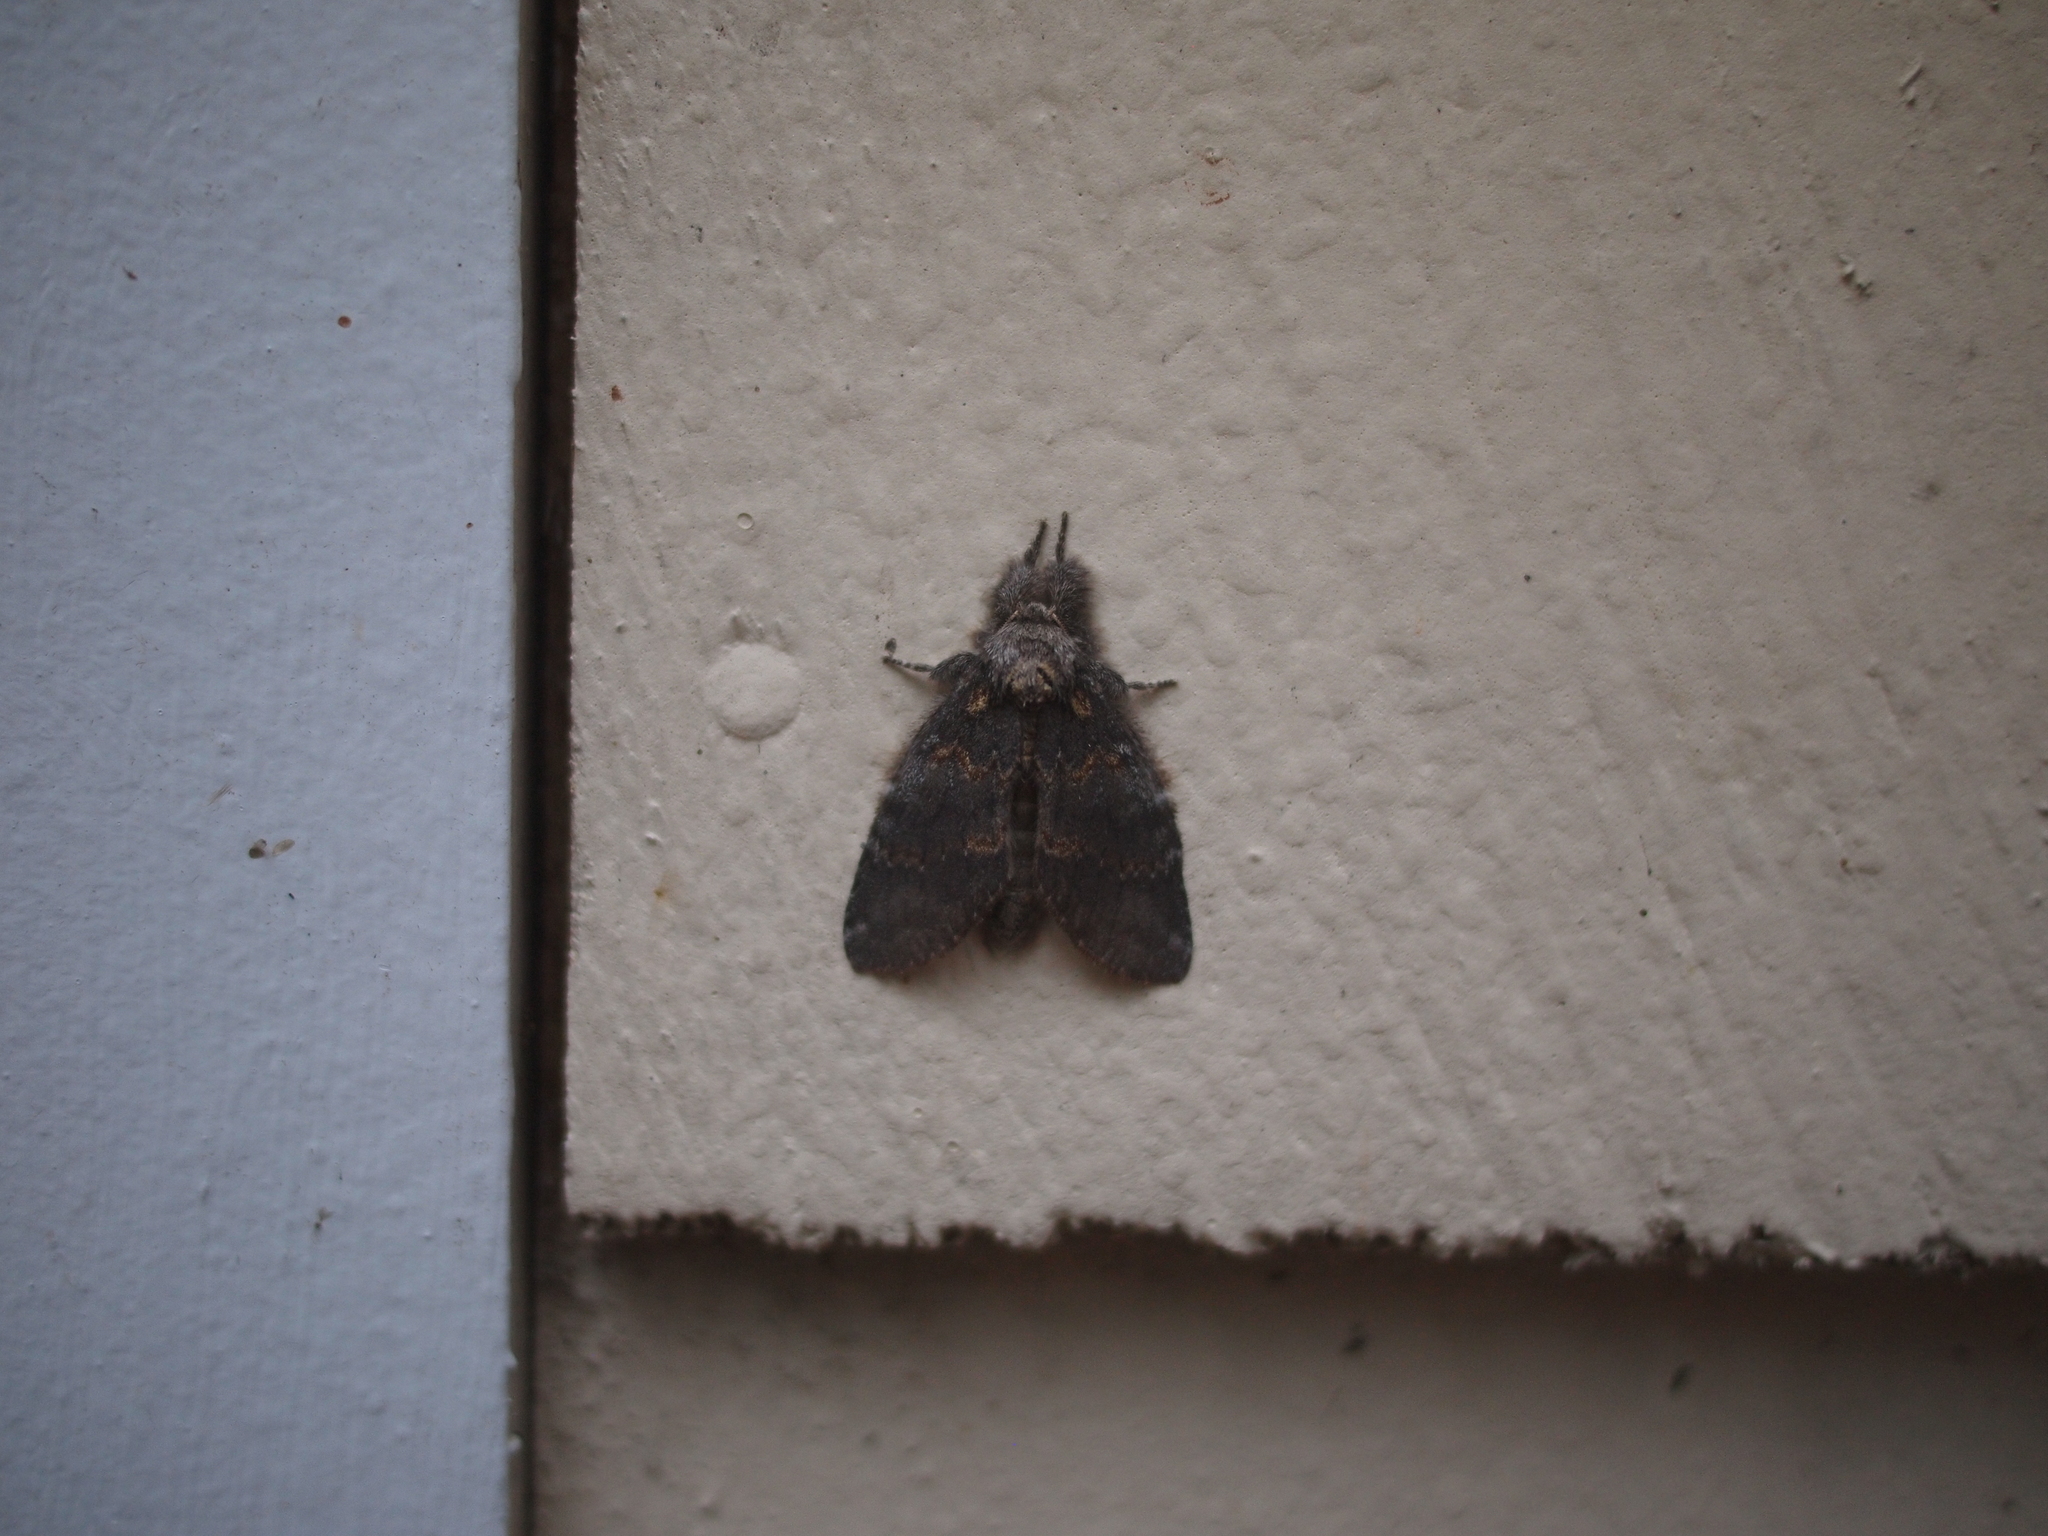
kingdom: Animalia
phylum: Arthropoda
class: Insecta
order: Lepidoptera
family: Notodontidae
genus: Peridea
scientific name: Peridea angulosa
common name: Angulose prominent
